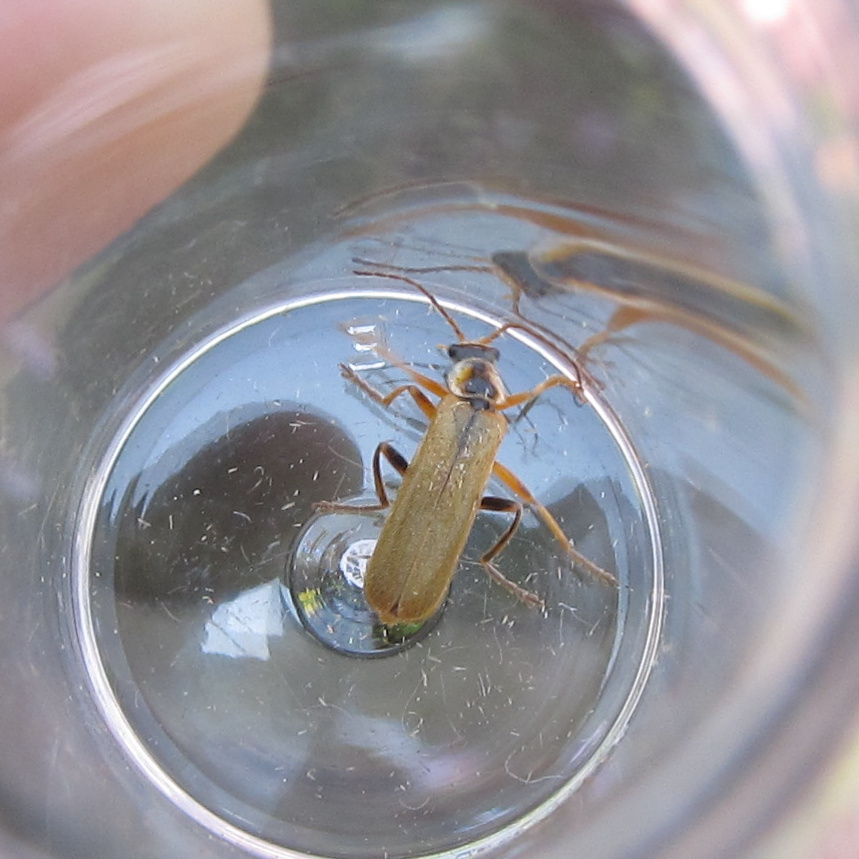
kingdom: Animalia
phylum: Arthropoda
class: Insecta
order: Coleoptera
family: Cantharidae
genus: Cantharis
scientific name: Cantharis decipiens
